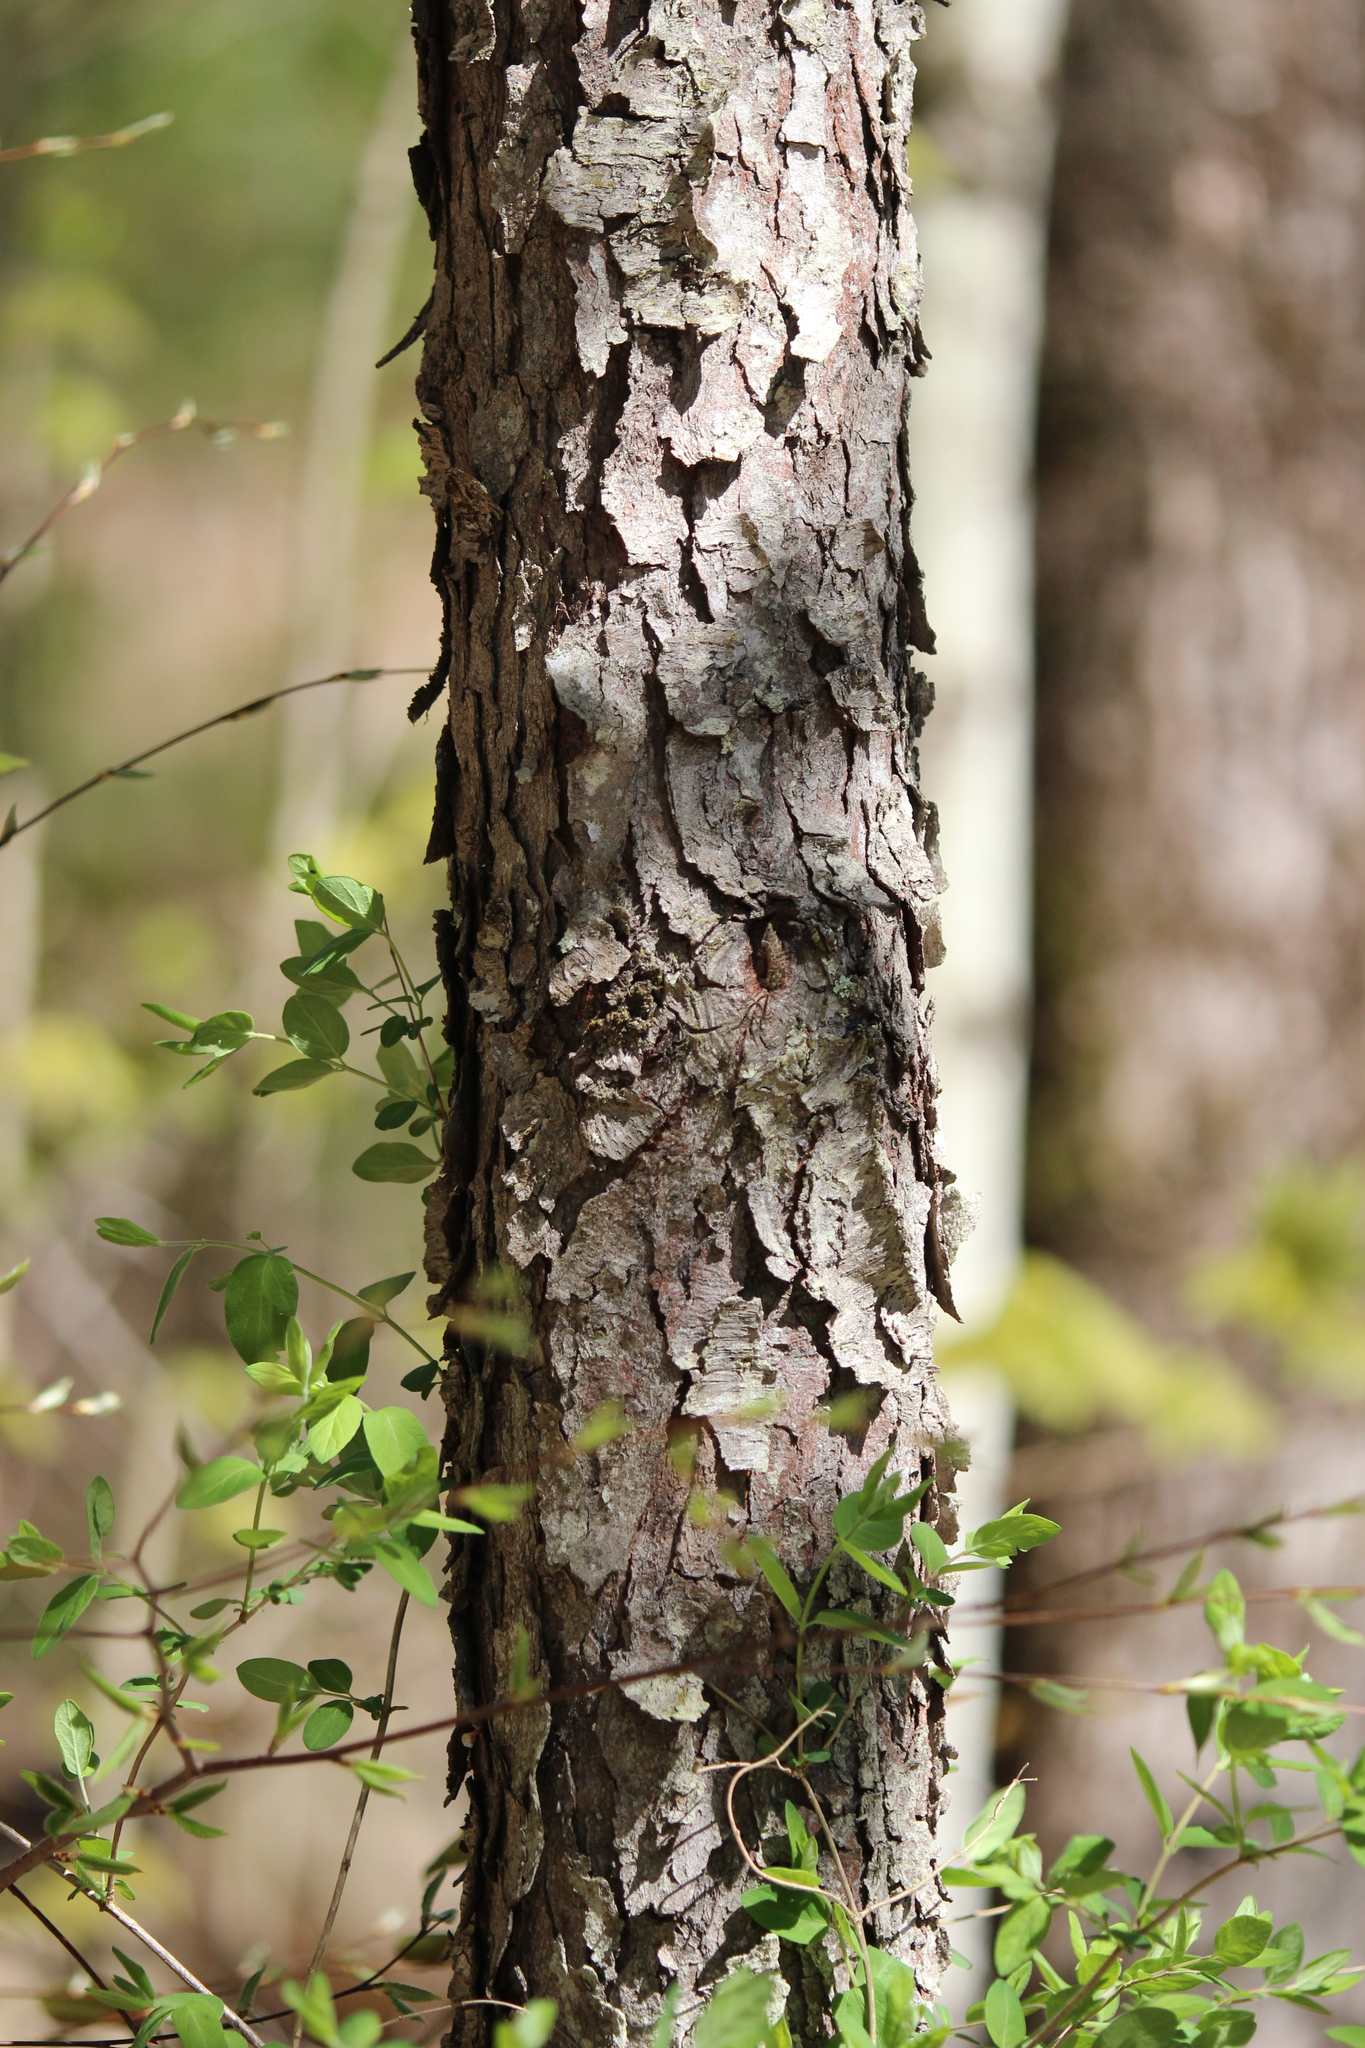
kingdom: Plantae
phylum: Tracheophyta
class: Magnoliopsida
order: Rosales
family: Rosaceae
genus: Prunus
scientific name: Prunus serotina
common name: Black cherry
